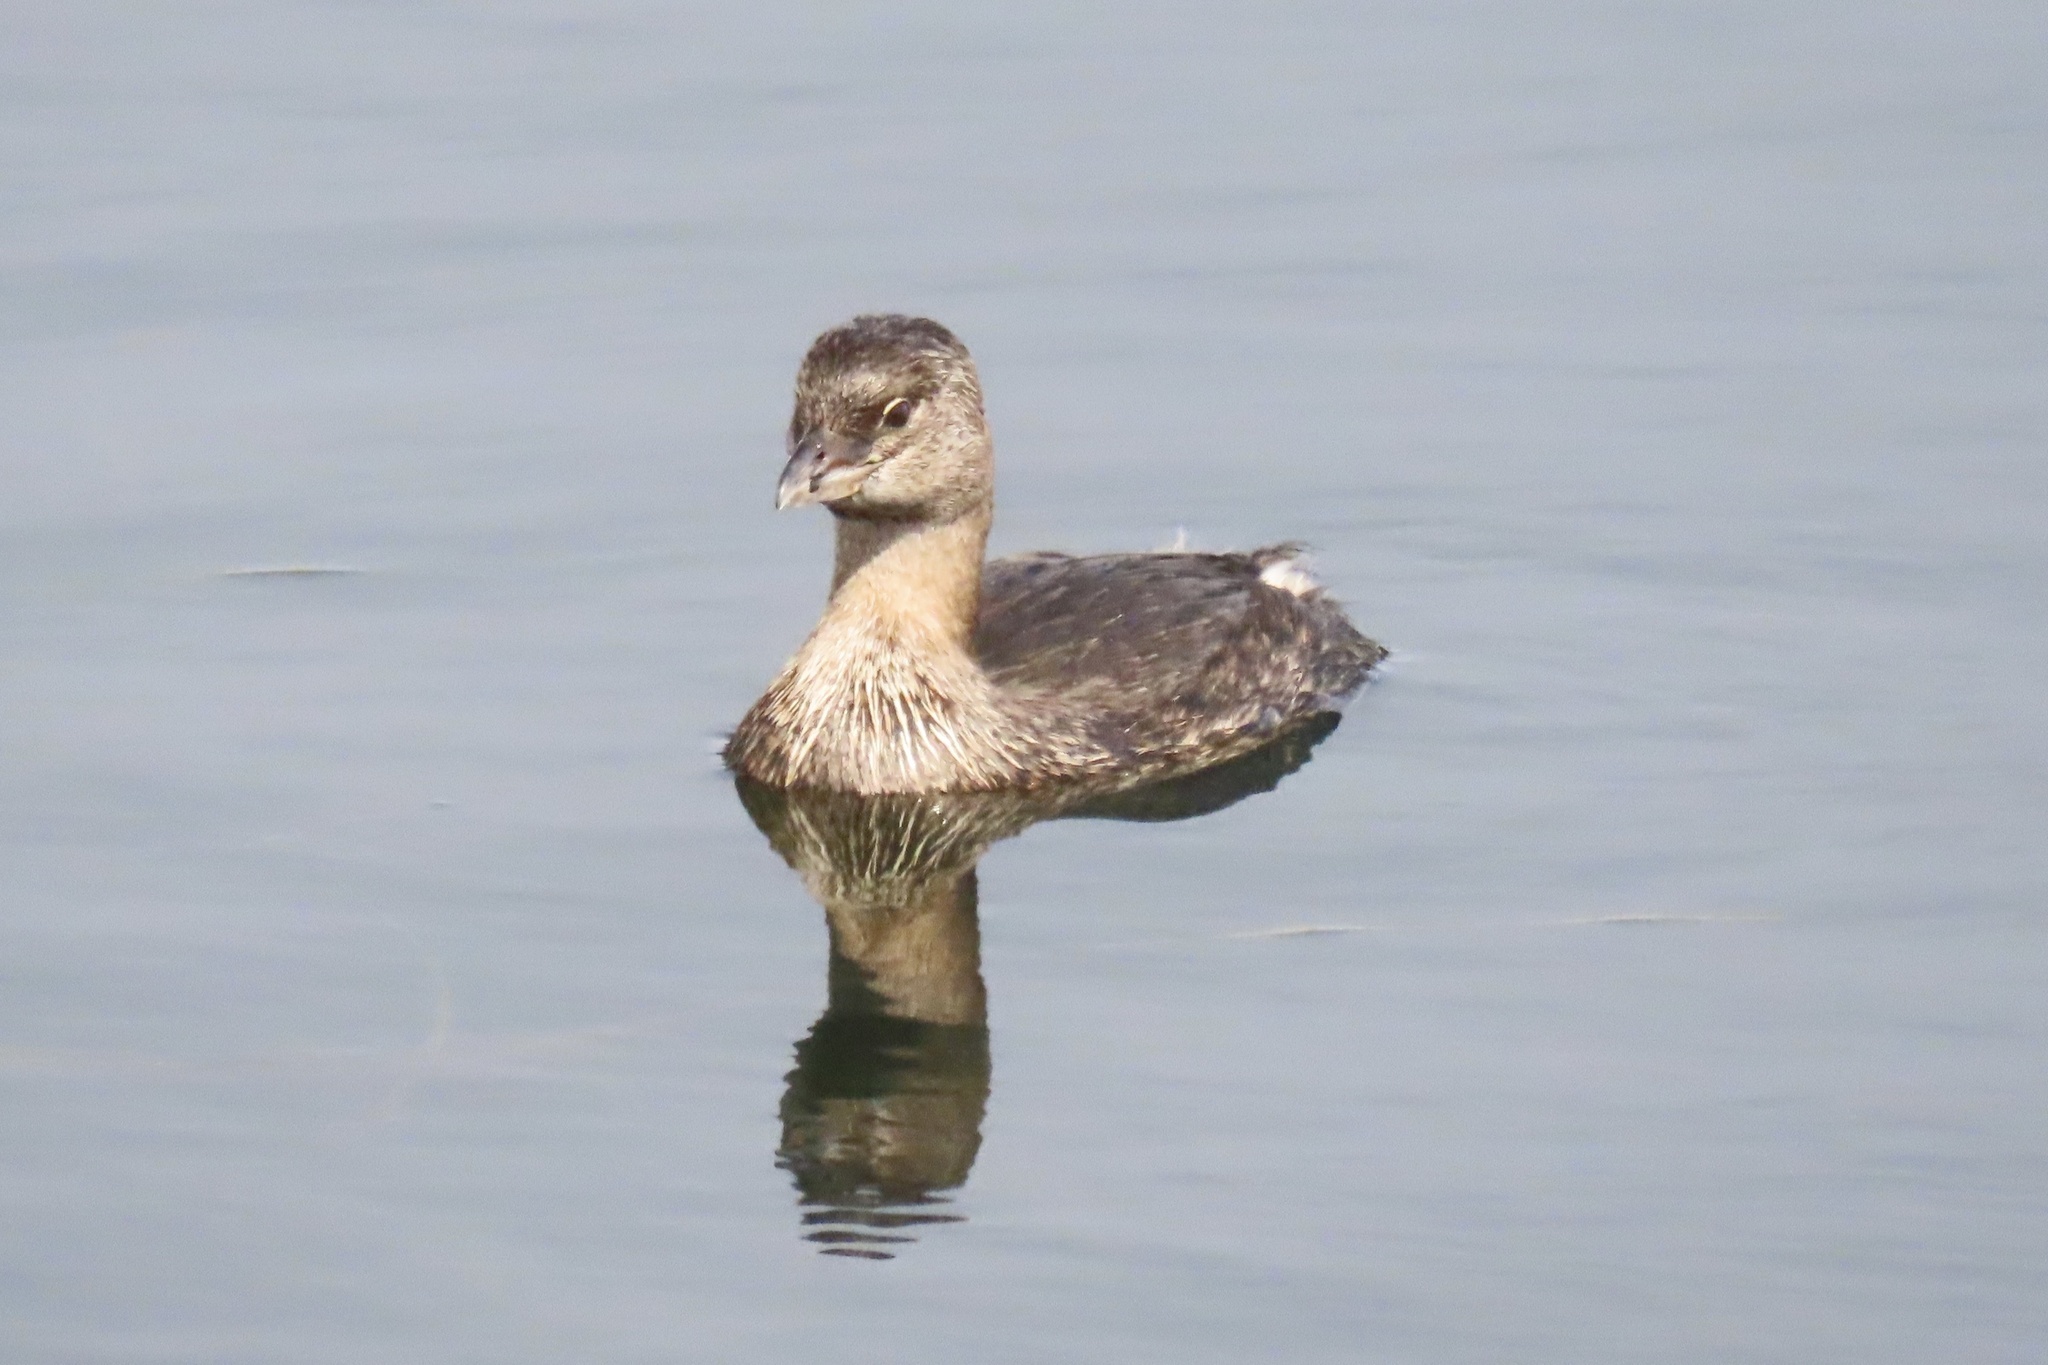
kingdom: Animalia
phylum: Chordata
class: Aves
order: Podicipediformes
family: Podicipedidae
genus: Podilymbus
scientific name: Podilymbus podiceps
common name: Pied-billed grebe
